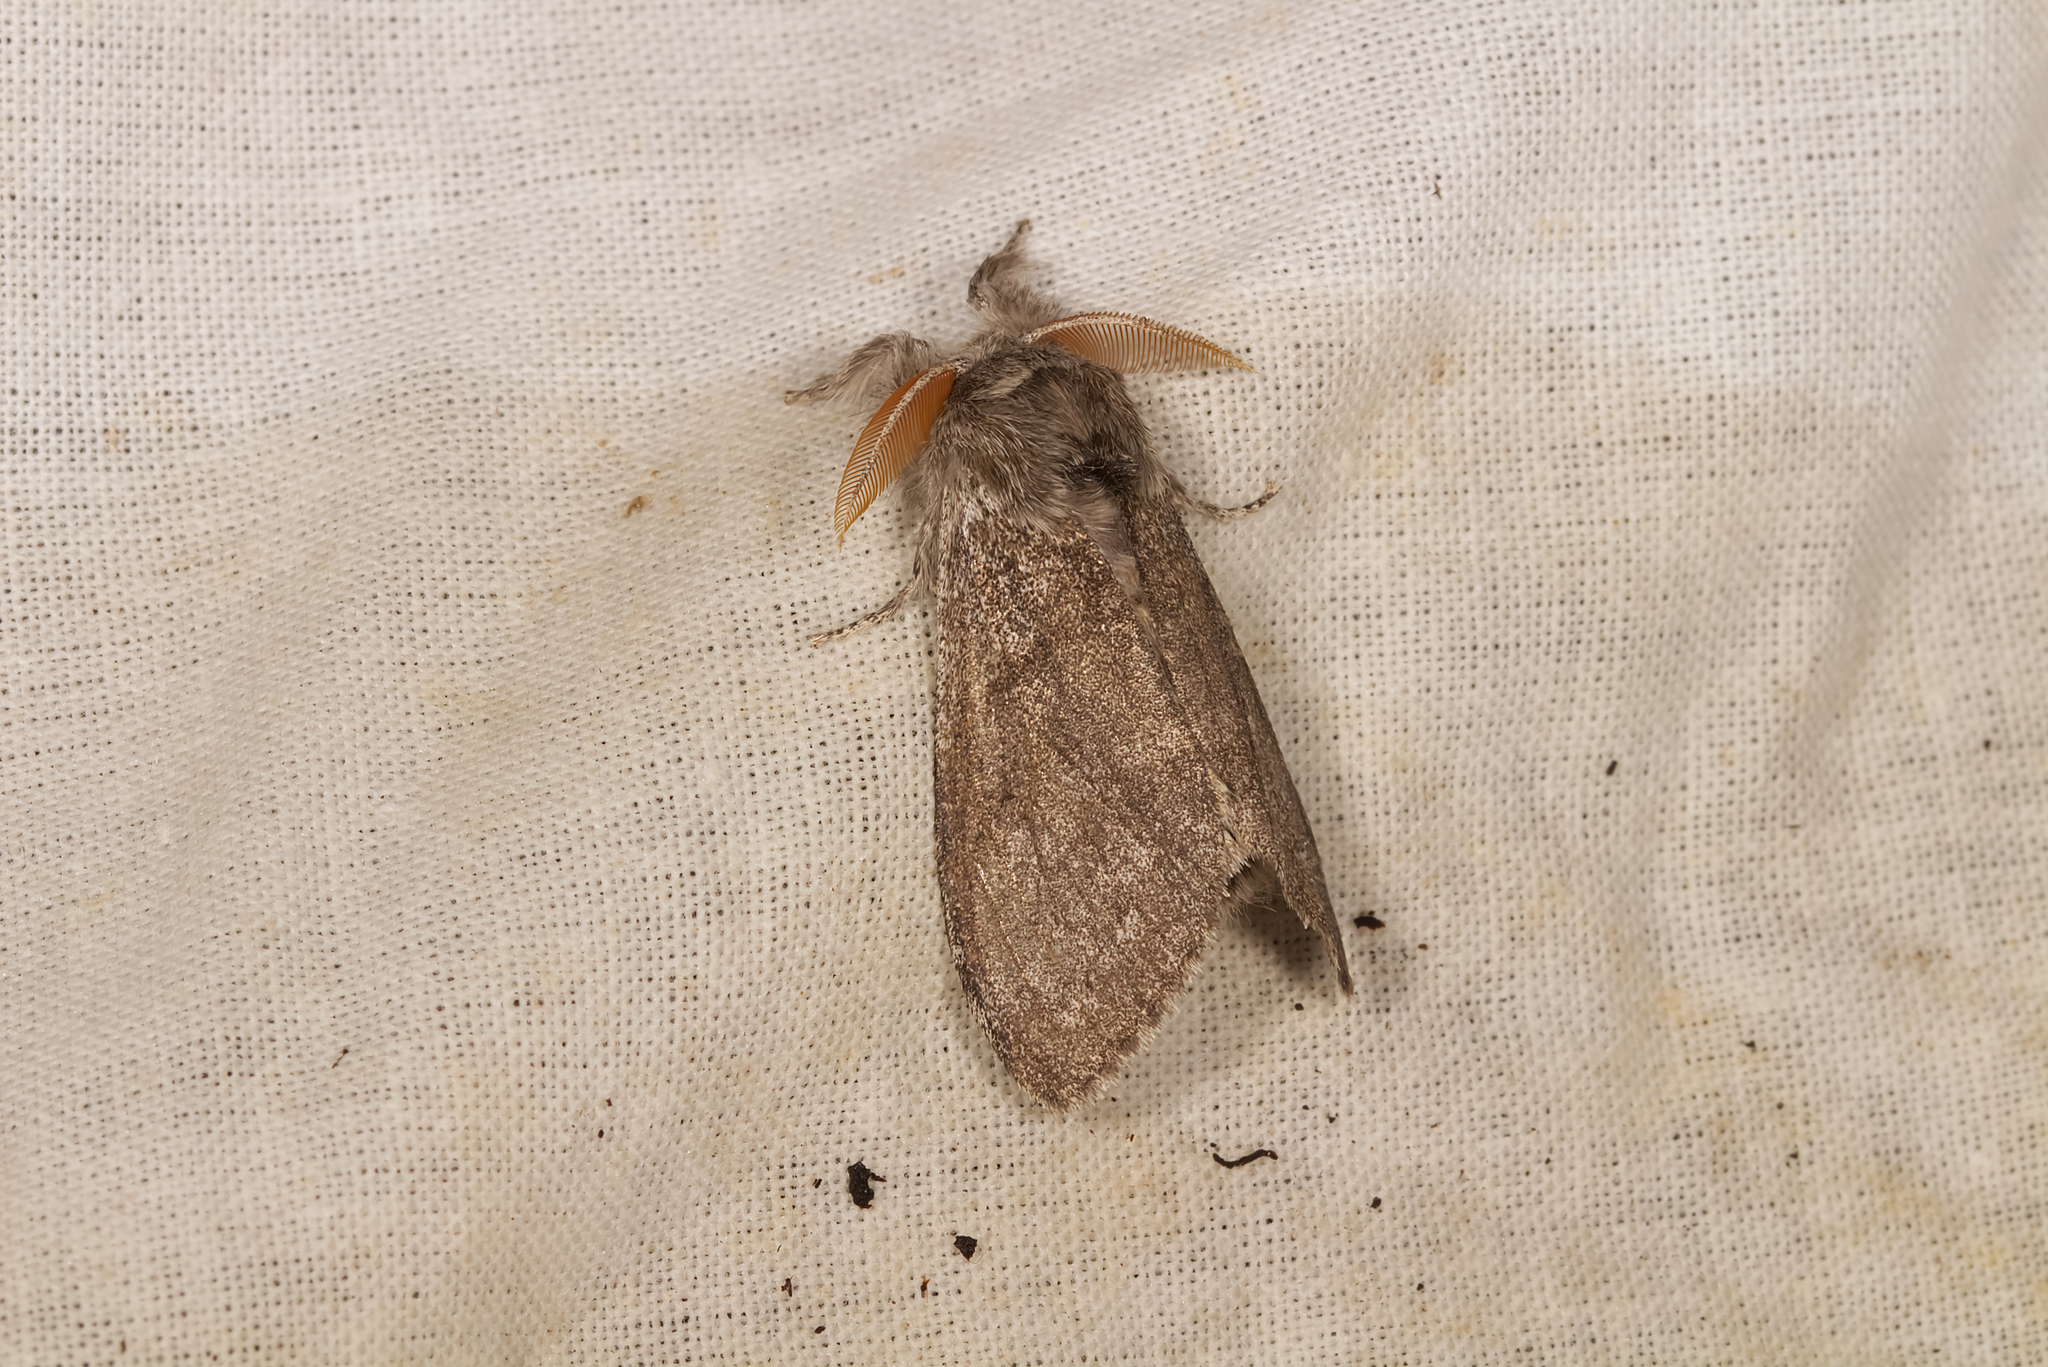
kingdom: Animalia
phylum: Arthropoda
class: Insecta
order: Lepidoptera
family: Erebidae
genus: Calliteara
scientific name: Calliteara pudibunda
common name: Pale tussock
